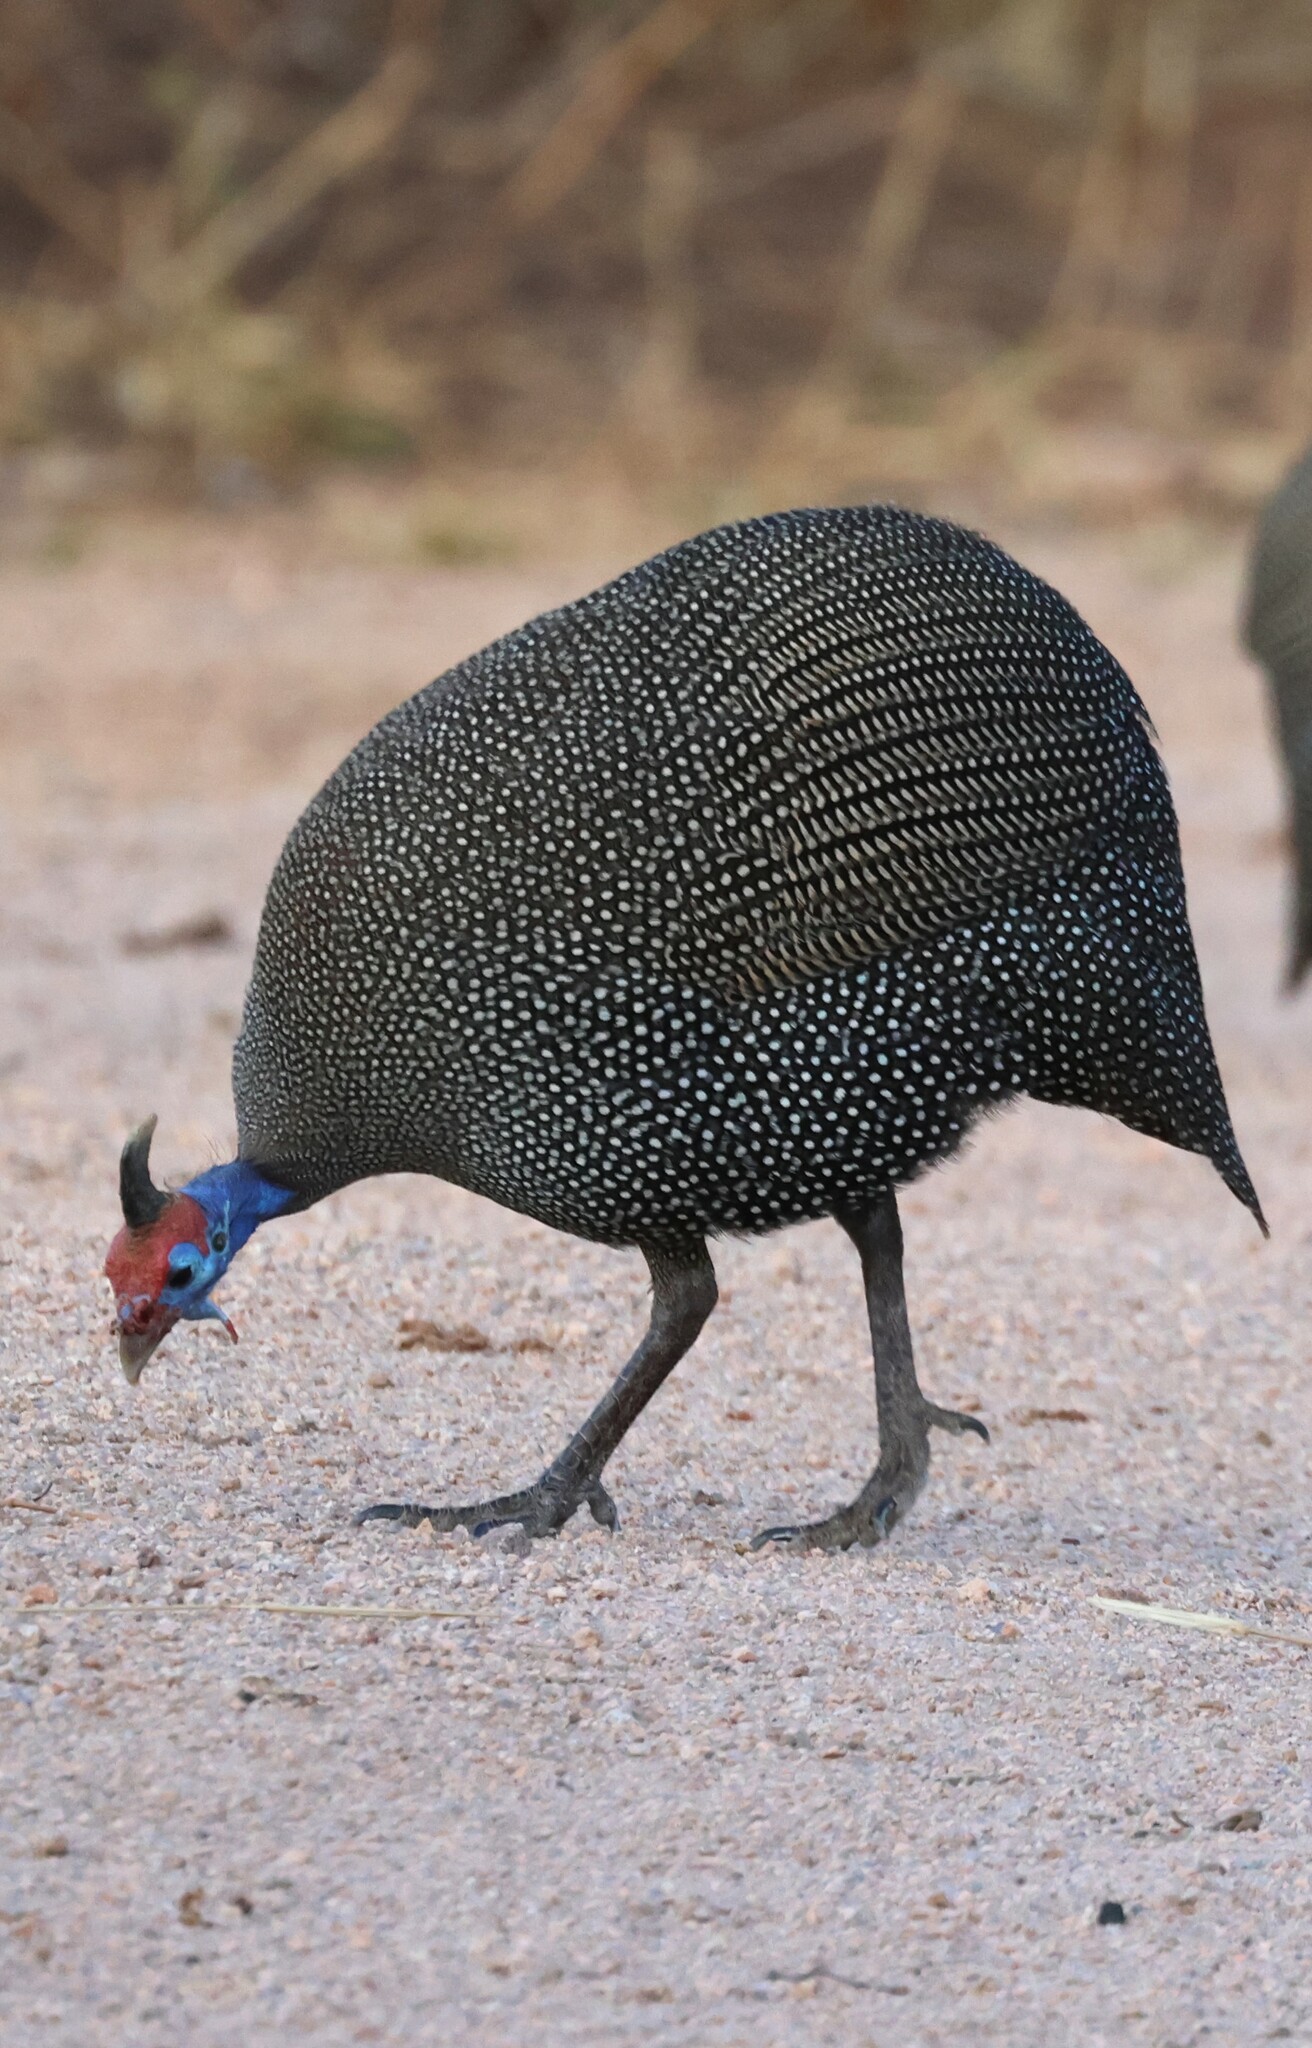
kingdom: Animalia
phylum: Chordata
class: Aves
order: Galliformes
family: Numididae
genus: Numida
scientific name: Numida meleagris
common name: Helmeted guineafowl
